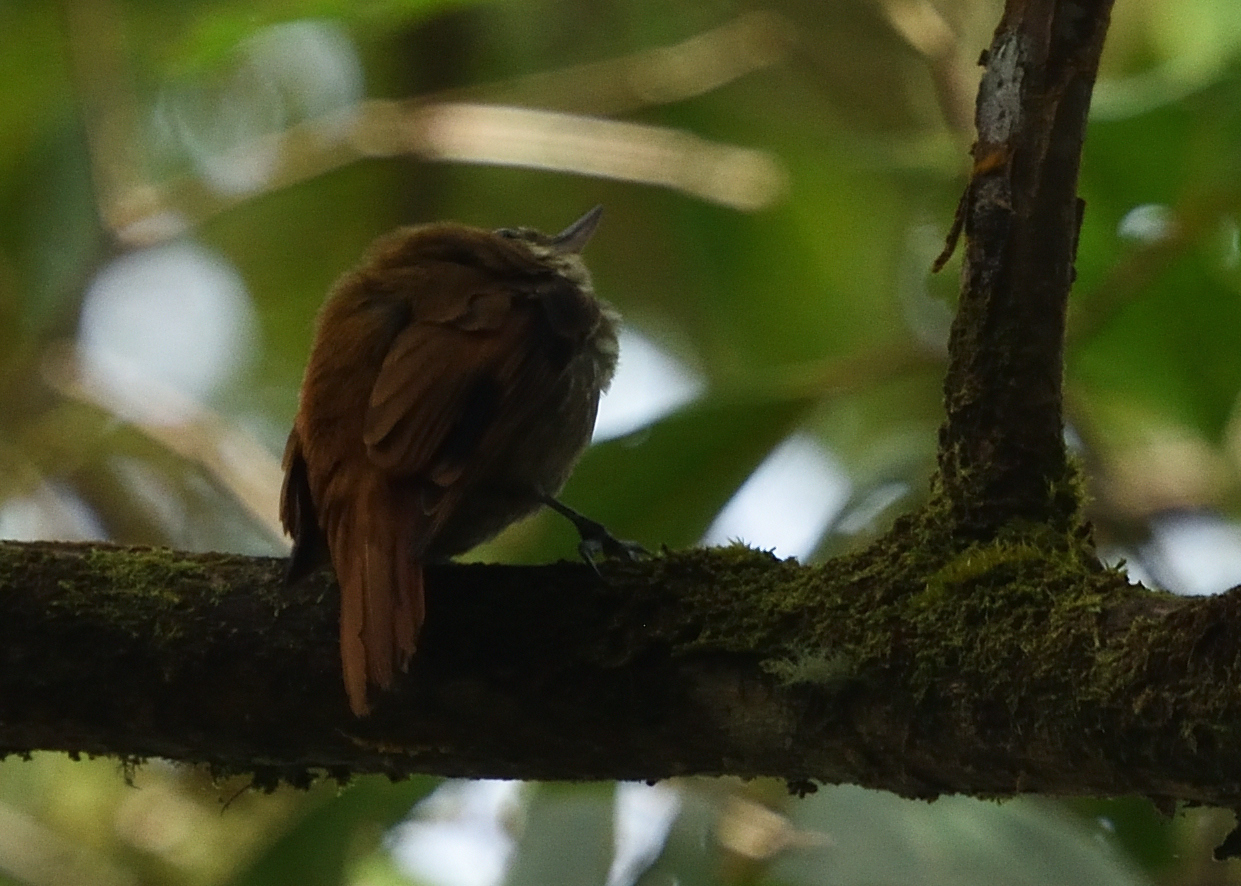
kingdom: Animalia
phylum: Chordata
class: Aves
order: Passeriformes
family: Furnariidae
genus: Xenops
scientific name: Xenops rutilans
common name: Streaked xenops
